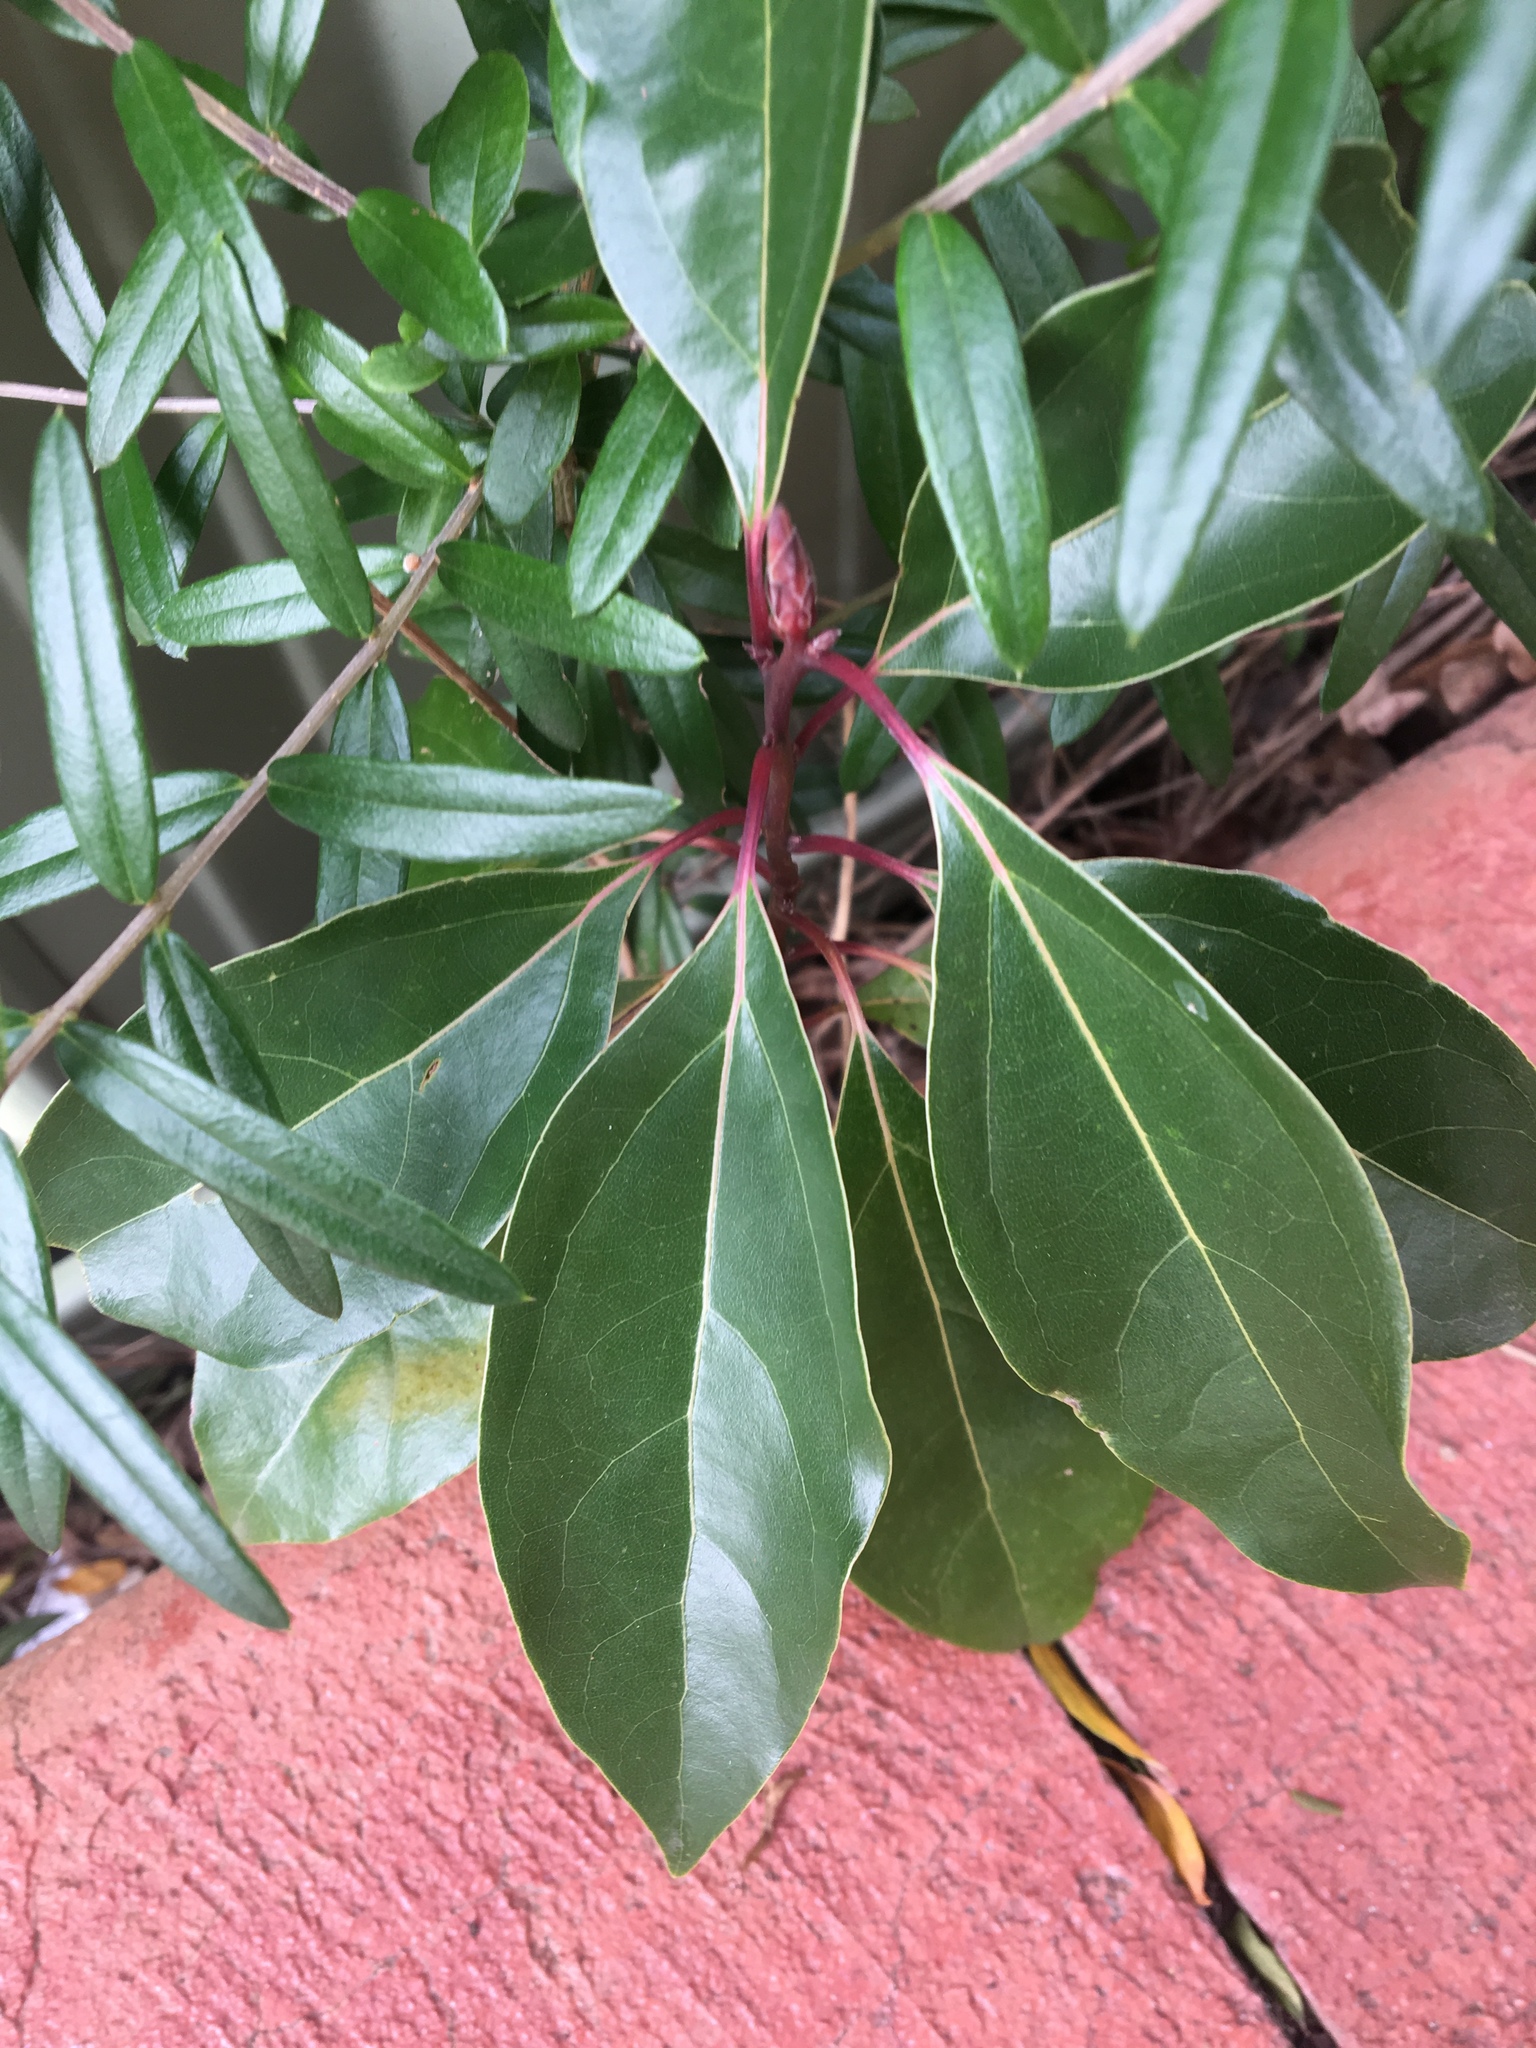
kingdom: Plantae
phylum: Tracheophyta
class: Magnoliopsida
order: Laurales
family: Lauraceae
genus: Cinnamomum
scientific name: Cinnamomum camphora
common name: Camphortree
